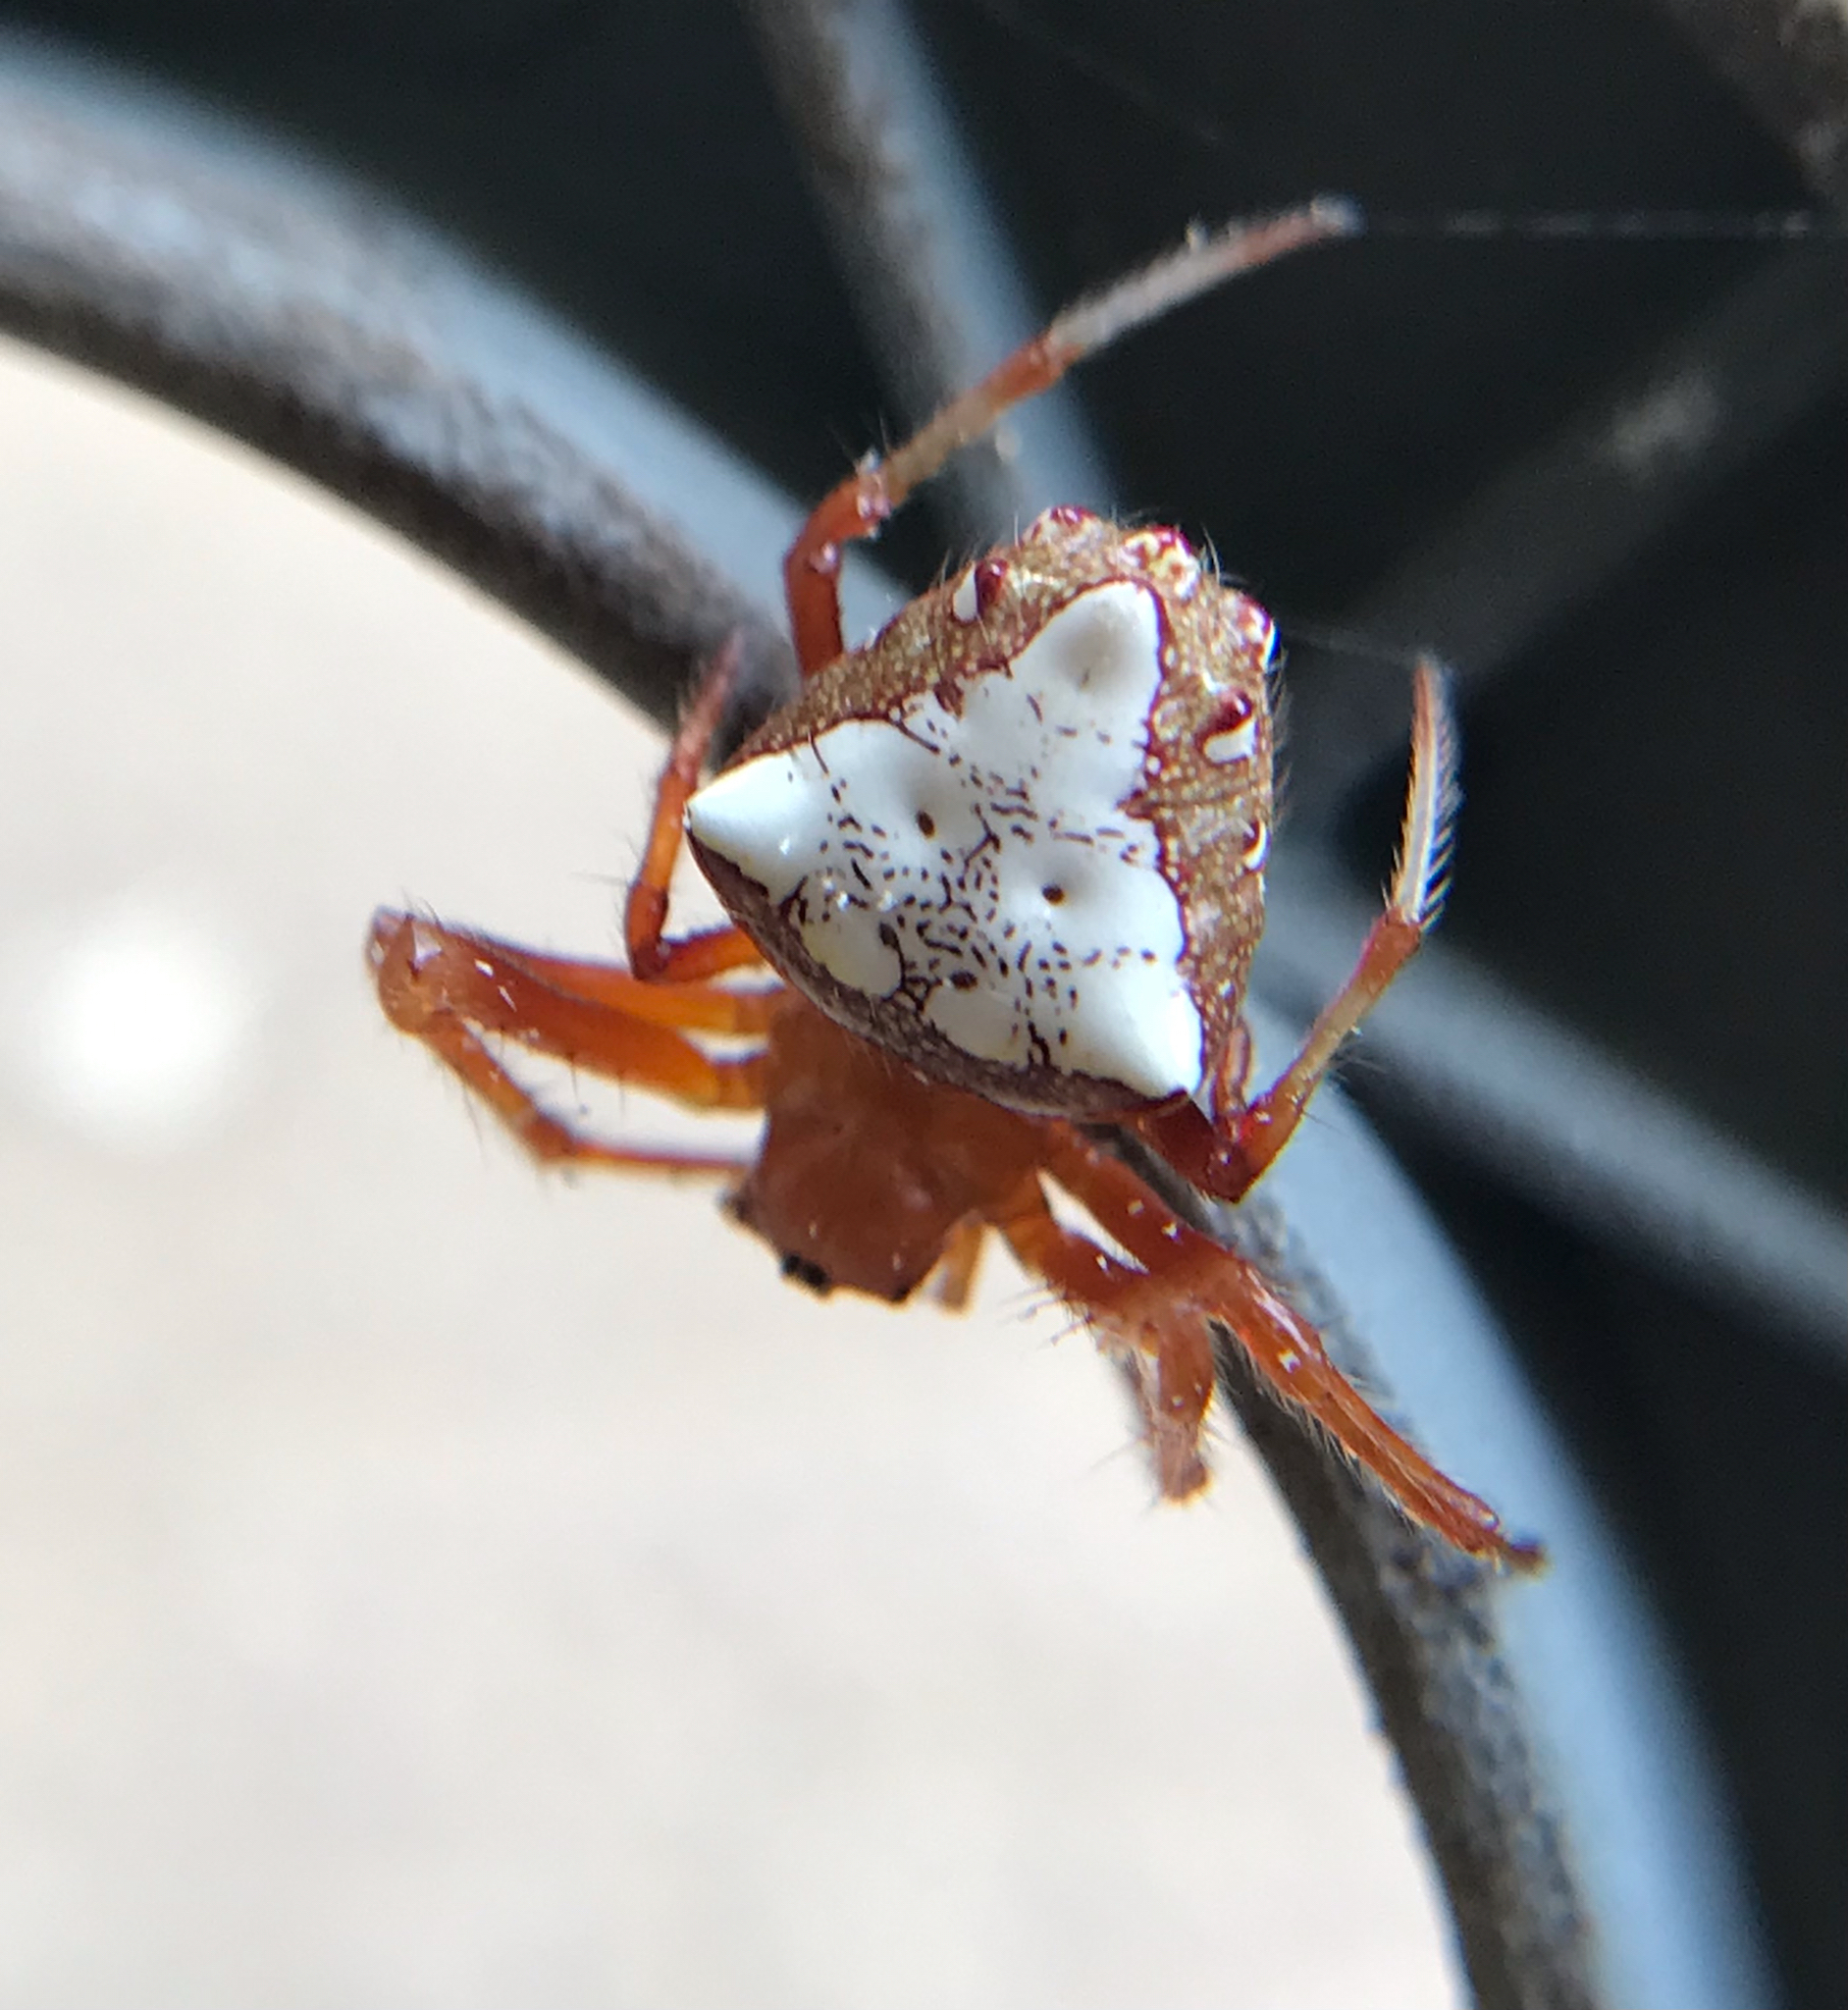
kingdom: Animalia
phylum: Arthropoda
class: Arachnida
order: Araneae
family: Araneidae
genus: Verrucosa
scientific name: Verrucosa arenata
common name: Orb weavers
